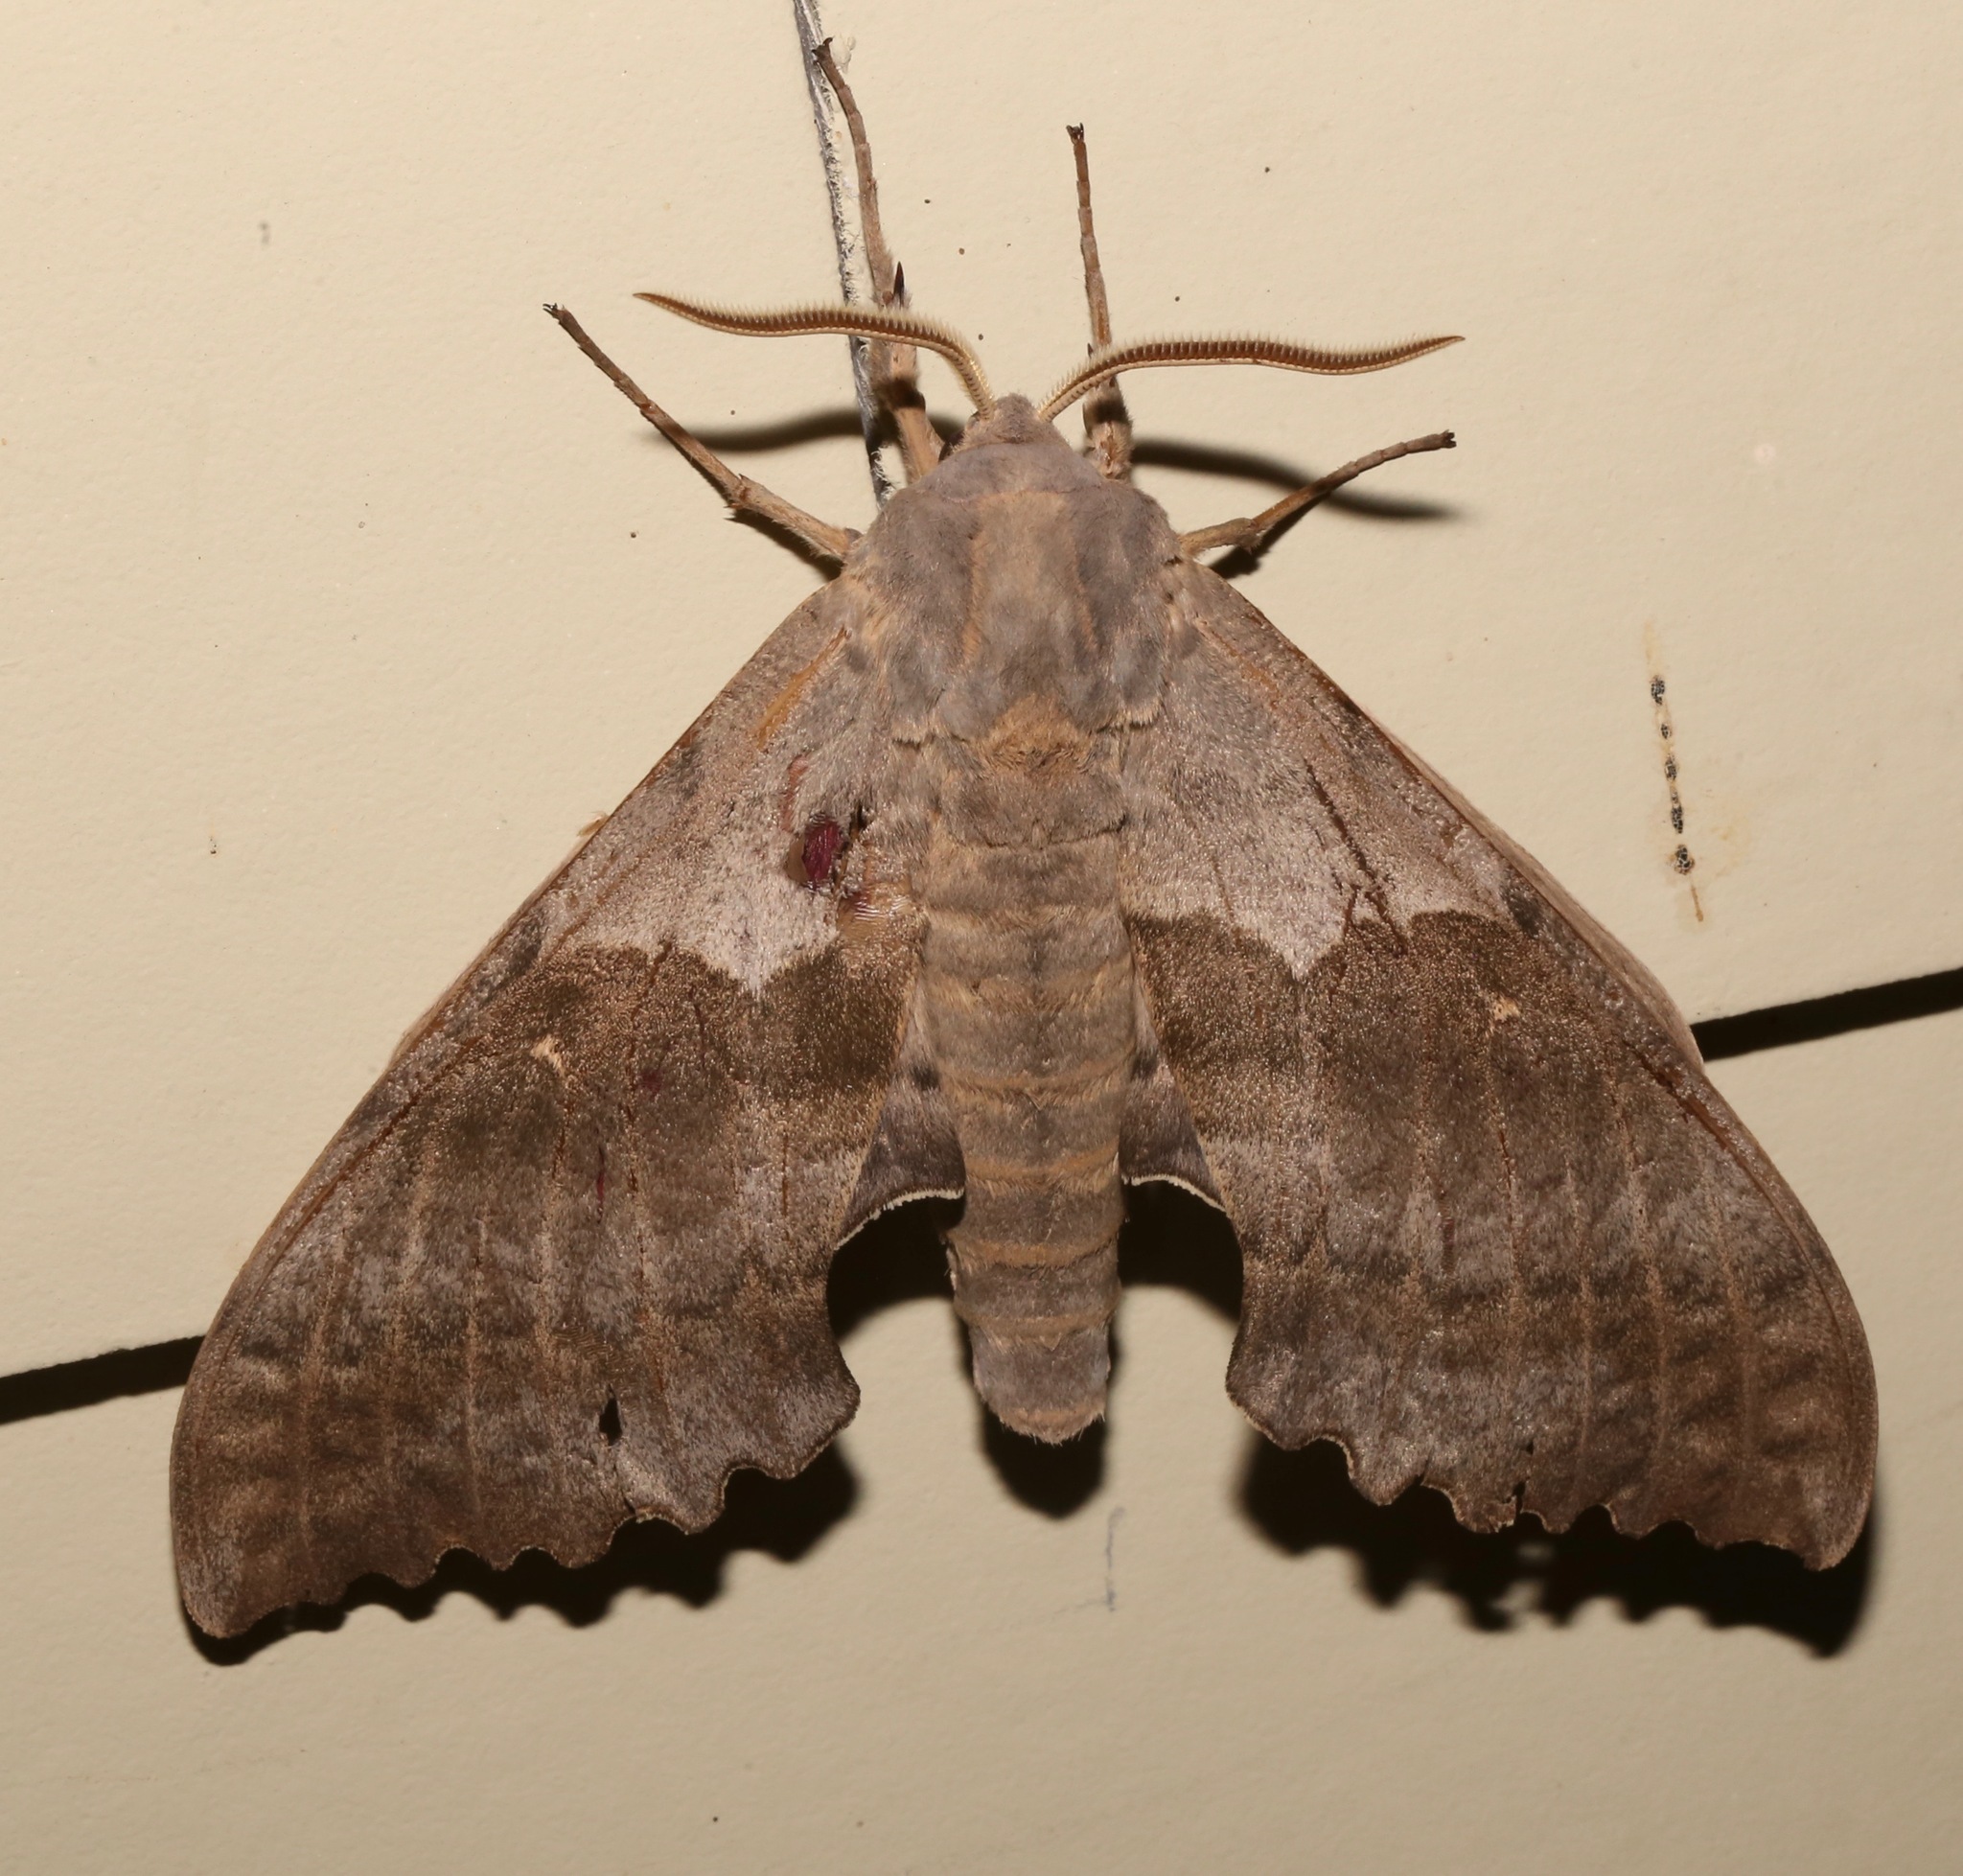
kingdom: Animalia
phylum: Arthropoda
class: Insecta
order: Lepidoptera
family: Sphingidae
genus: Pachysphinx
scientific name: Pachysphinx occidentalis
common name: Western poplar sphinx
